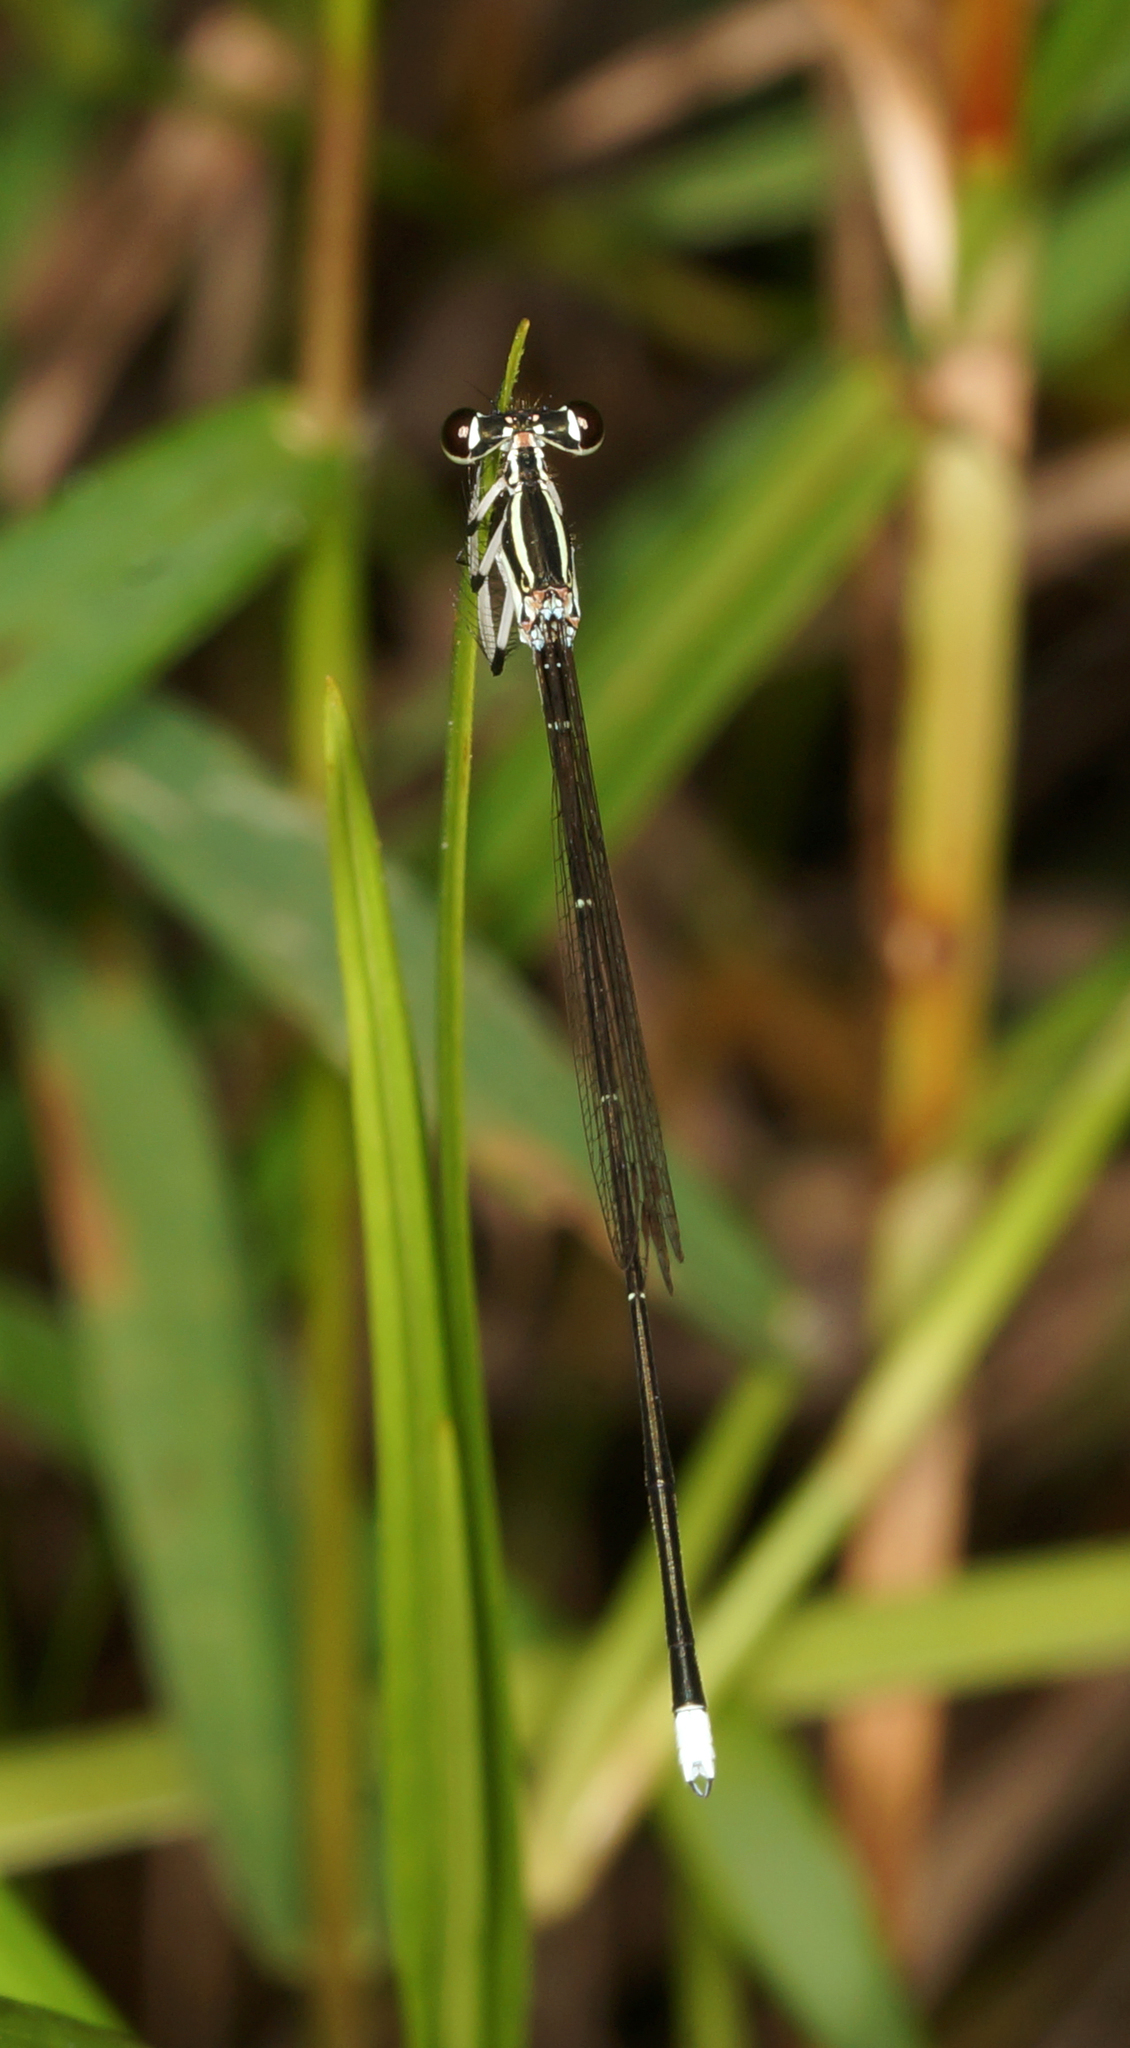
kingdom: Animalia
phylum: Arthropoda
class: Insecta
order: Odonata
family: Platycnemididae
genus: Pseudocopera
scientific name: Pseudocopera ciliata
